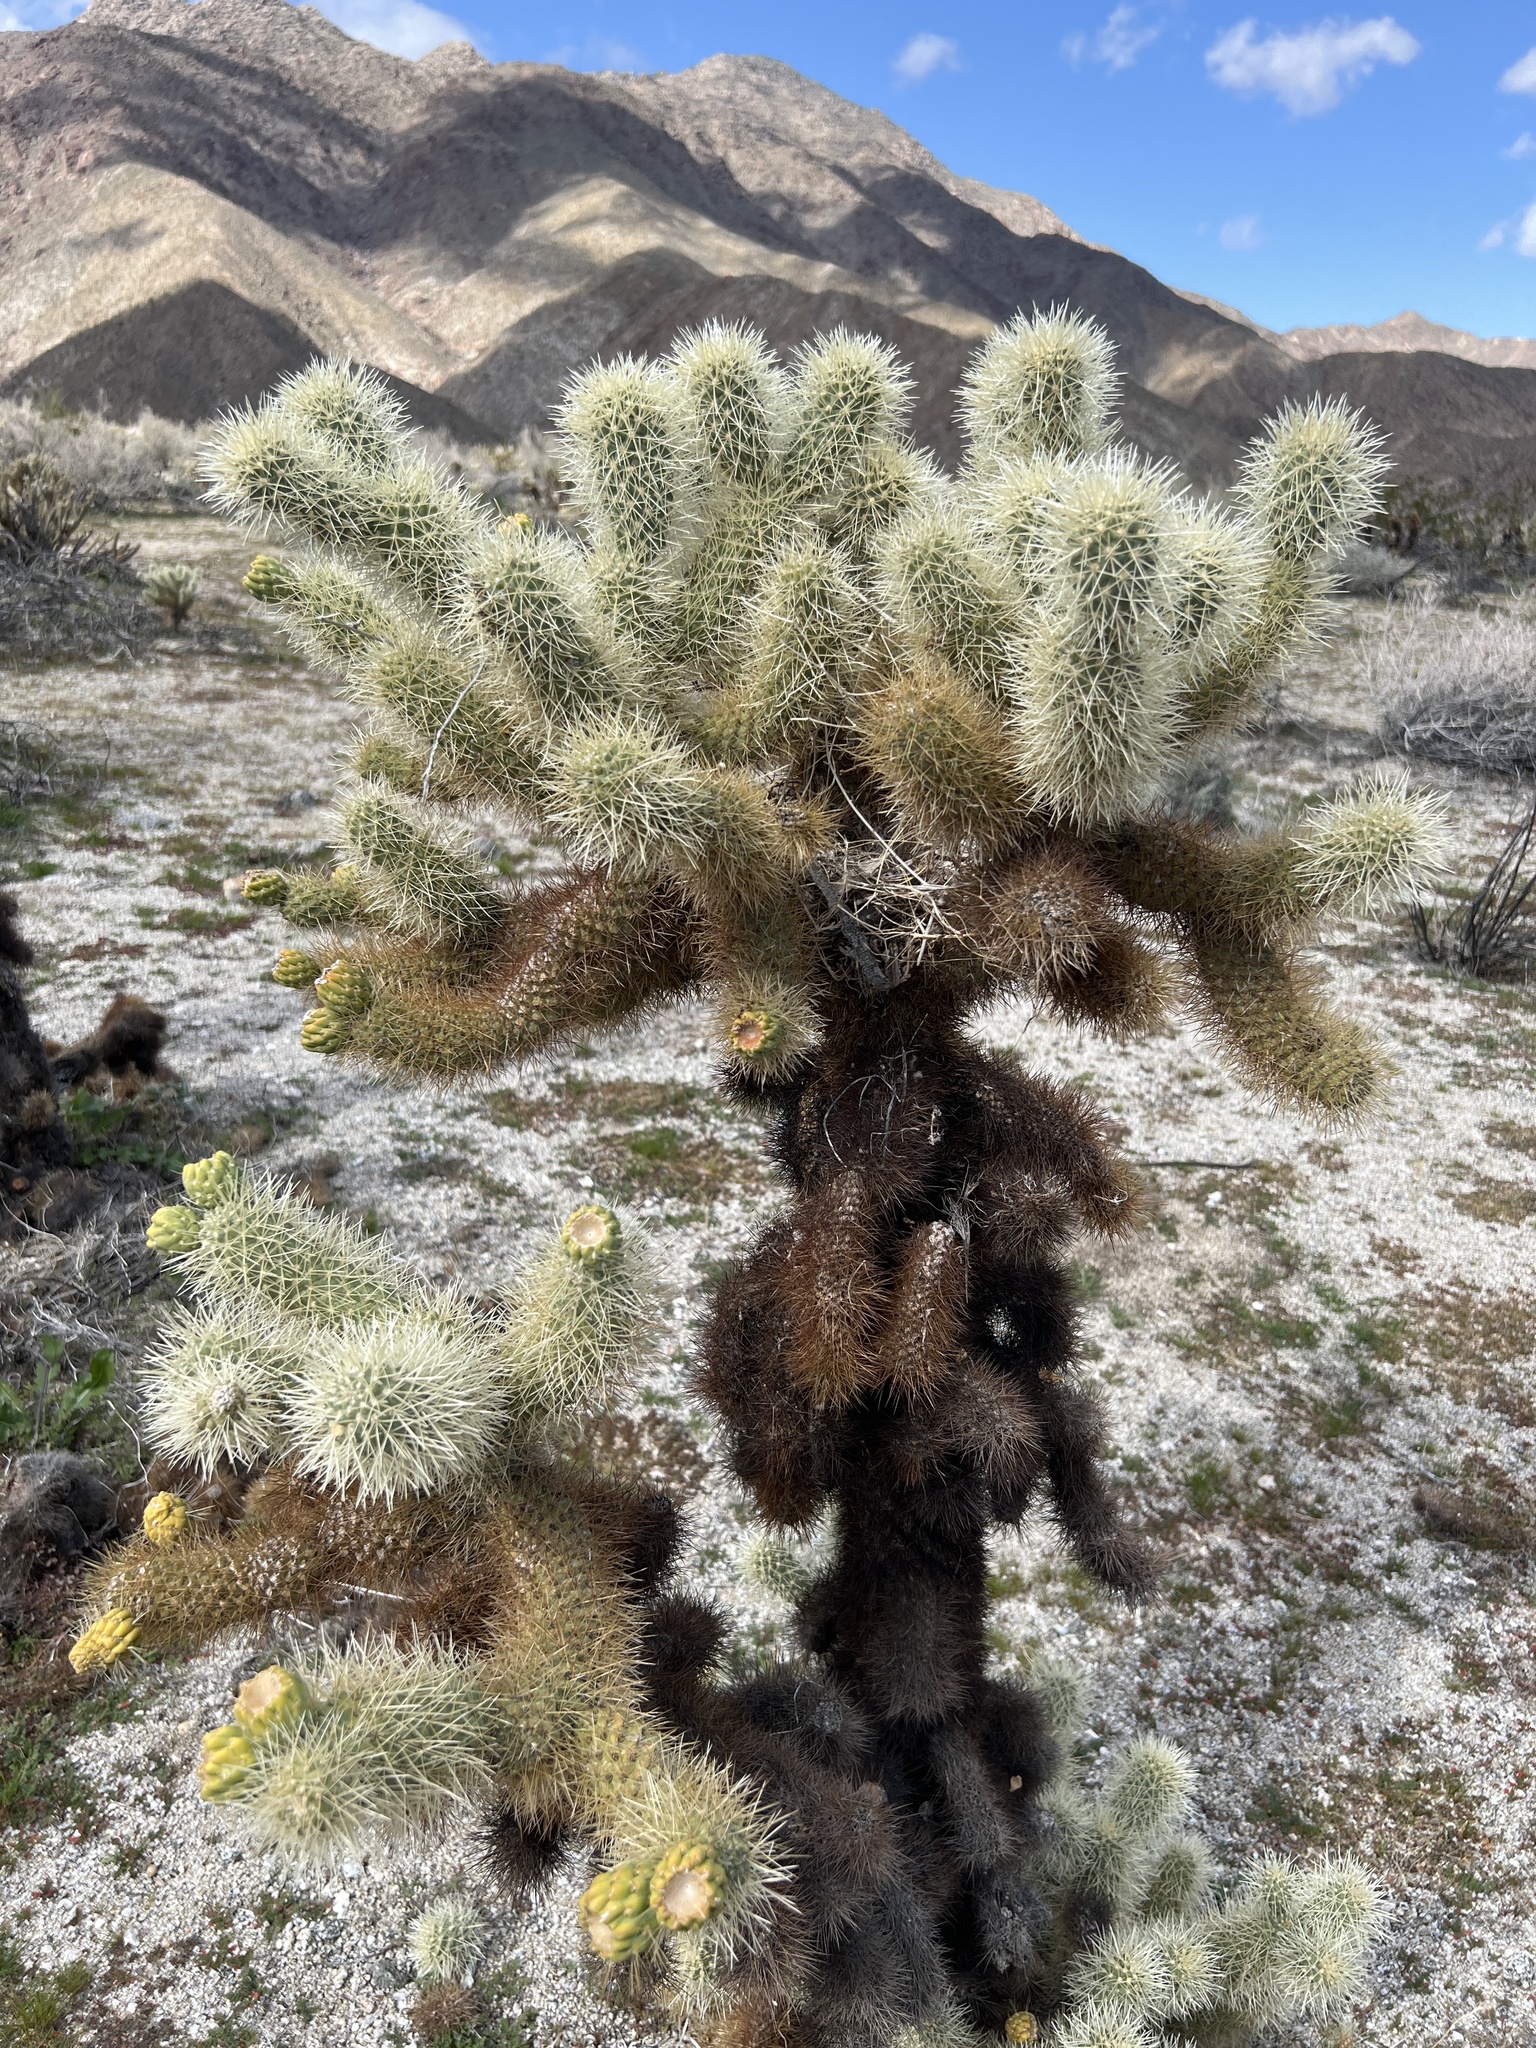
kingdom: Plantae
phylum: Tracheophyta
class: Magnoliopsida
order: Caryophyllales
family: Cactaceae
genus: Cylindropuntia
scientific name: Cylindropuntia fosbergii
